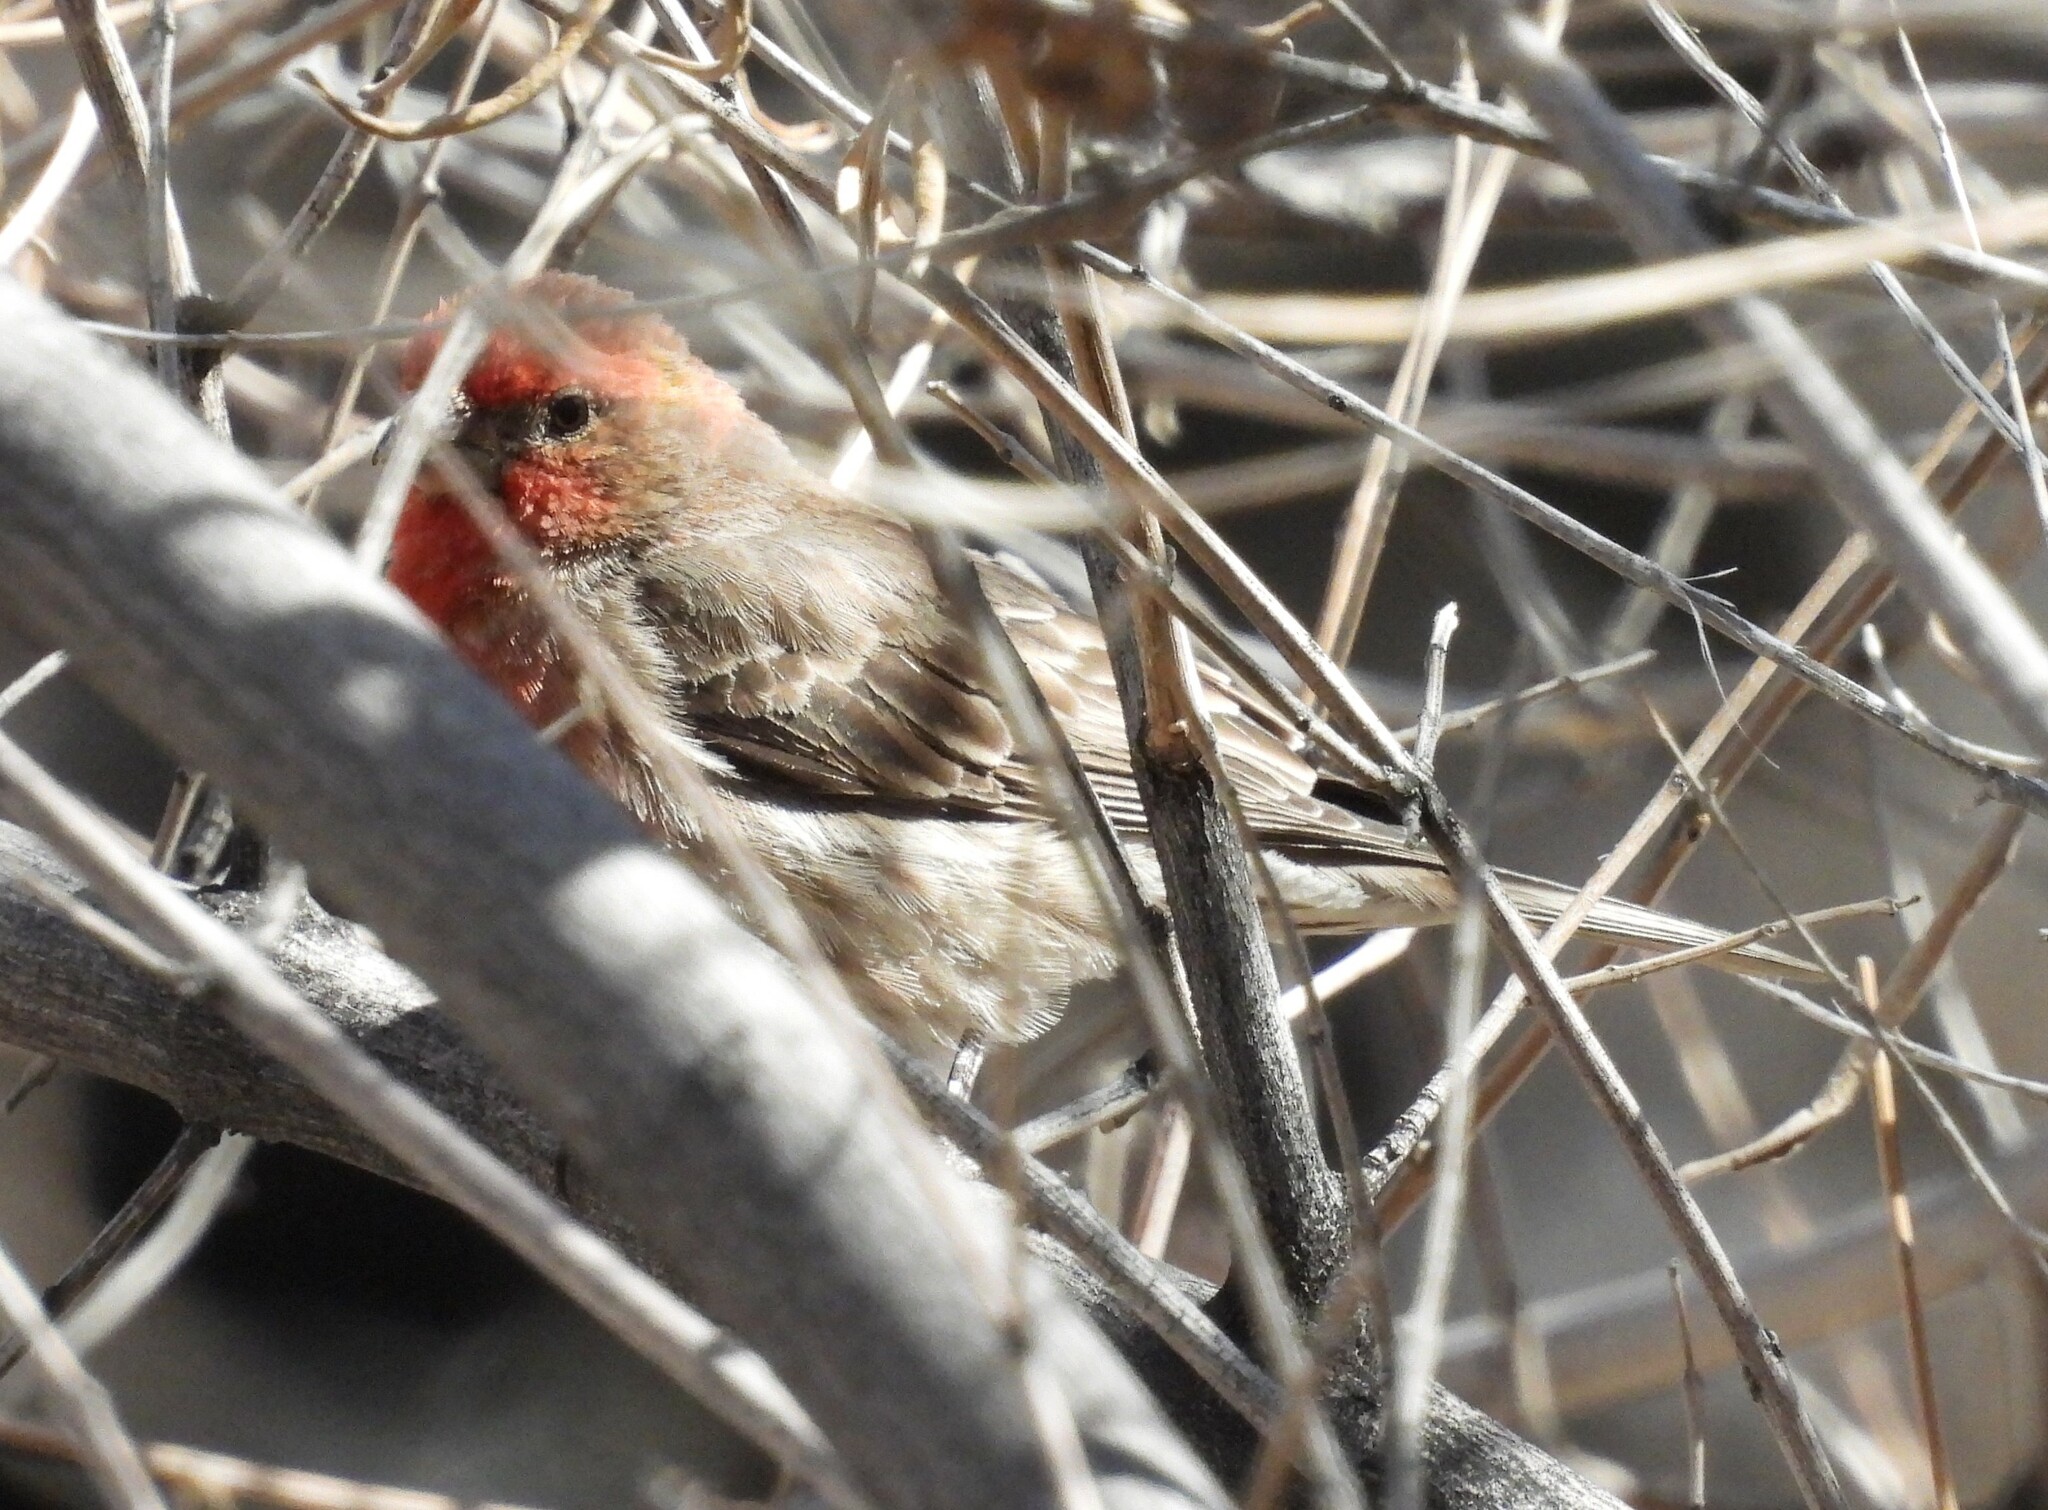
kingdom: Animalia
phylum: Chordata
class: Aves
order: Passeriformes
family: Fringillidae
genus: Haemorhous
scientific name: Haemorhous mexicanus
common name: House finch
